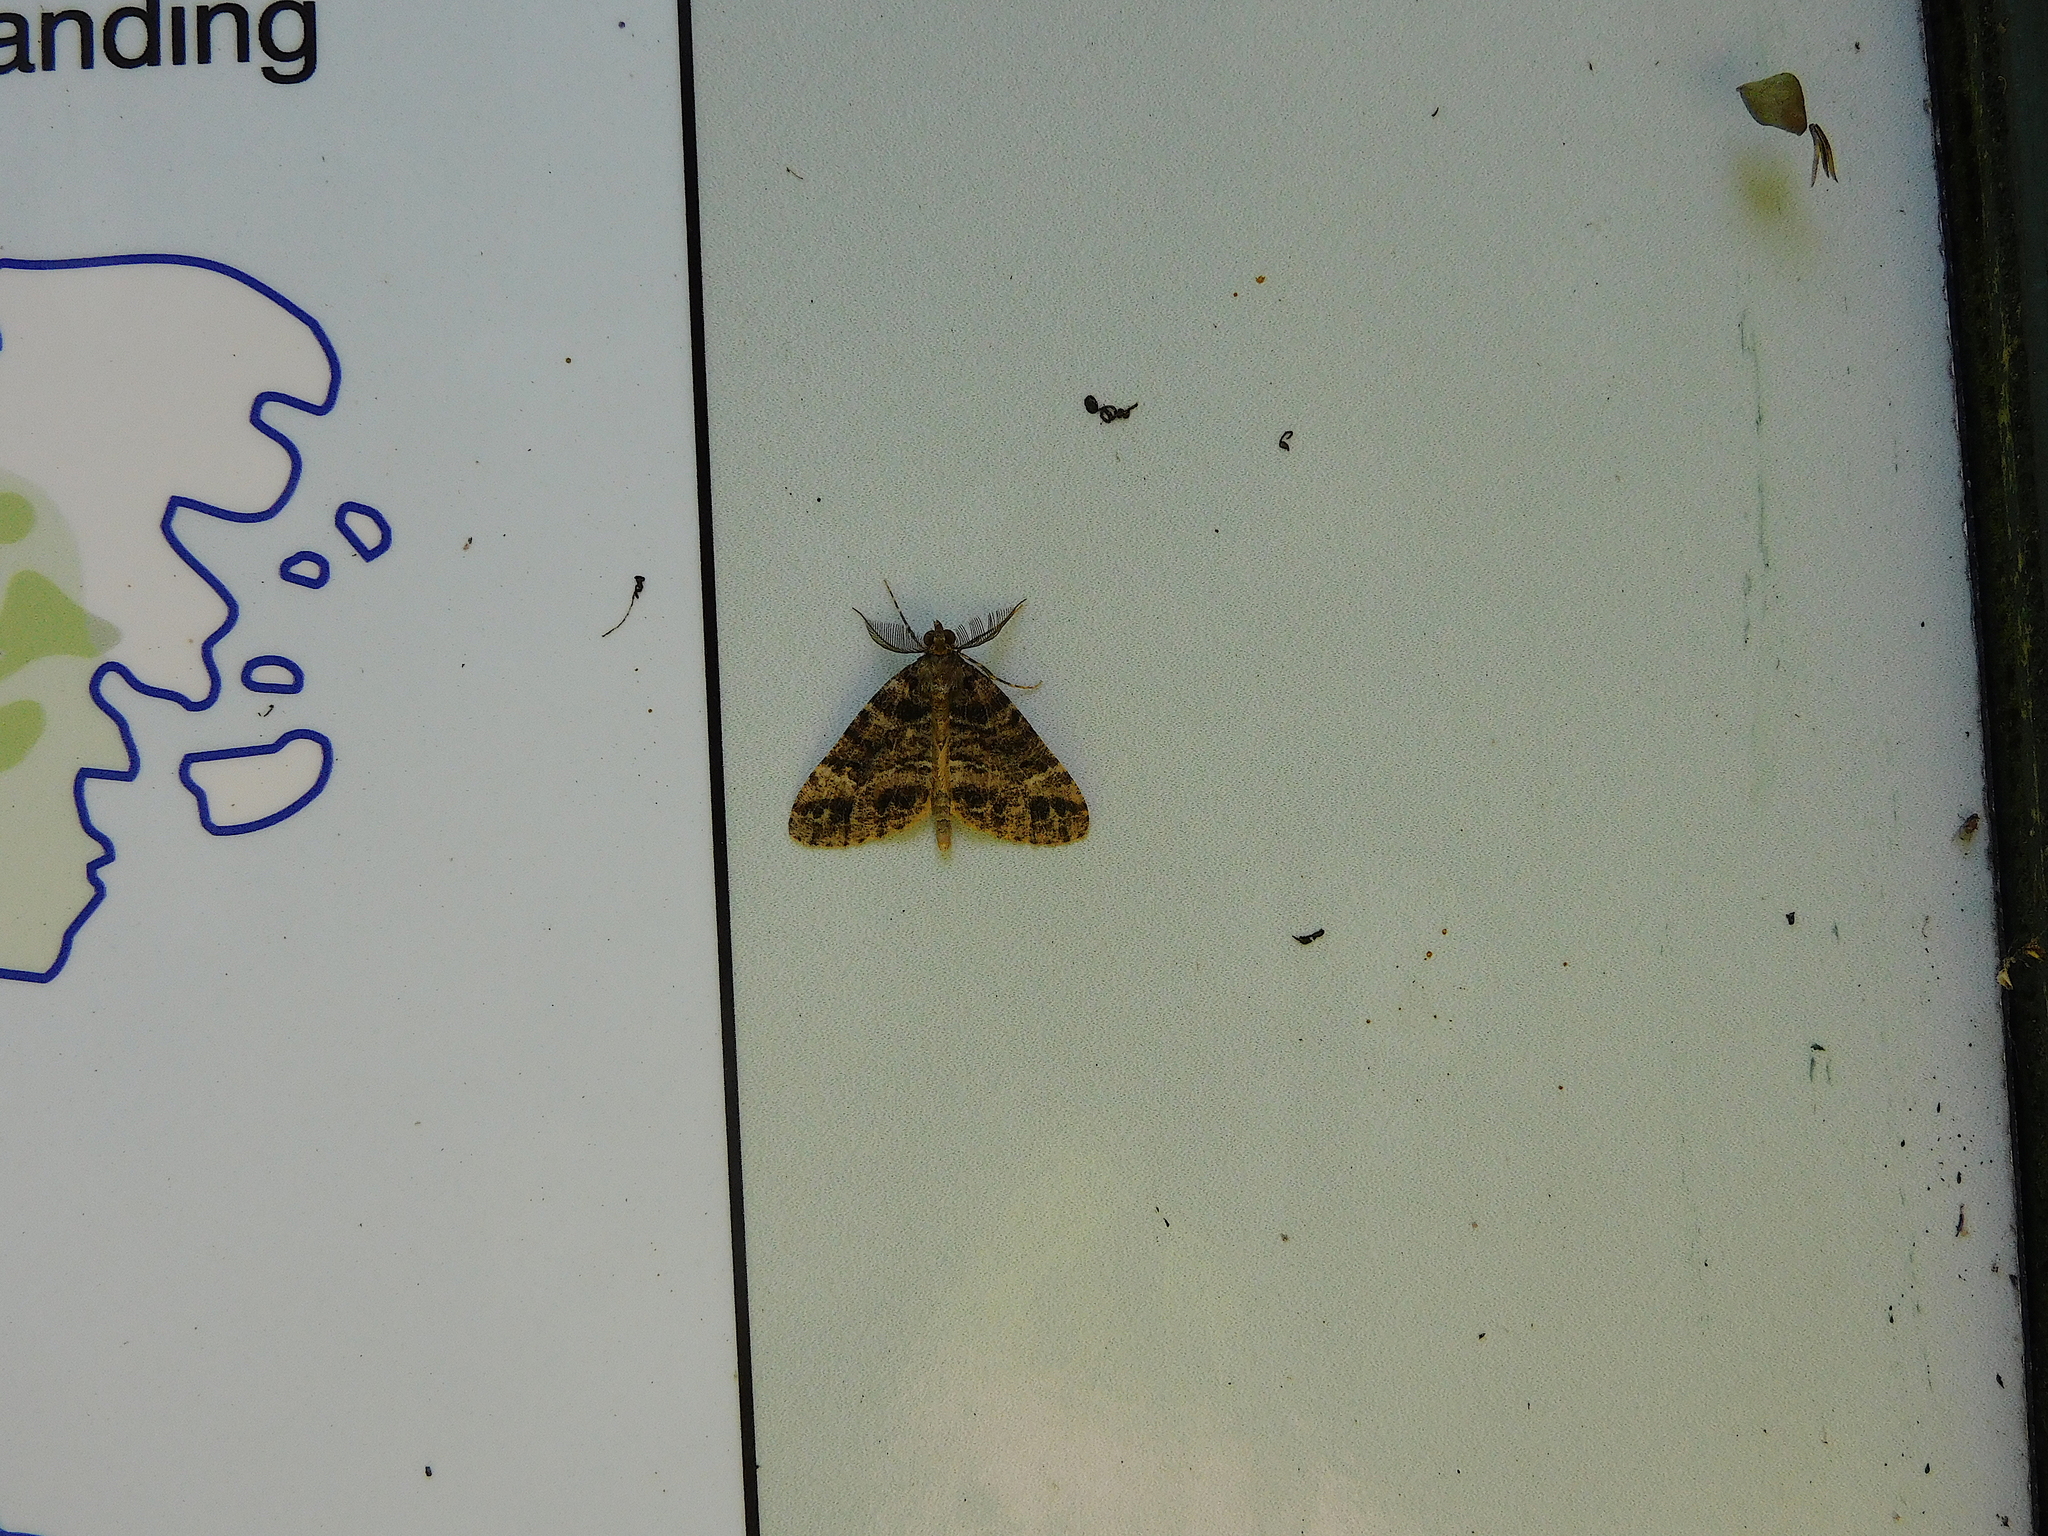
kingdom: Animalia
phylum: Arthropoda
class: Insecta
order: Lepidoptera
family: Geometridae
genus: Pseudocoremia
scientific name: Pseudocoremia productata
